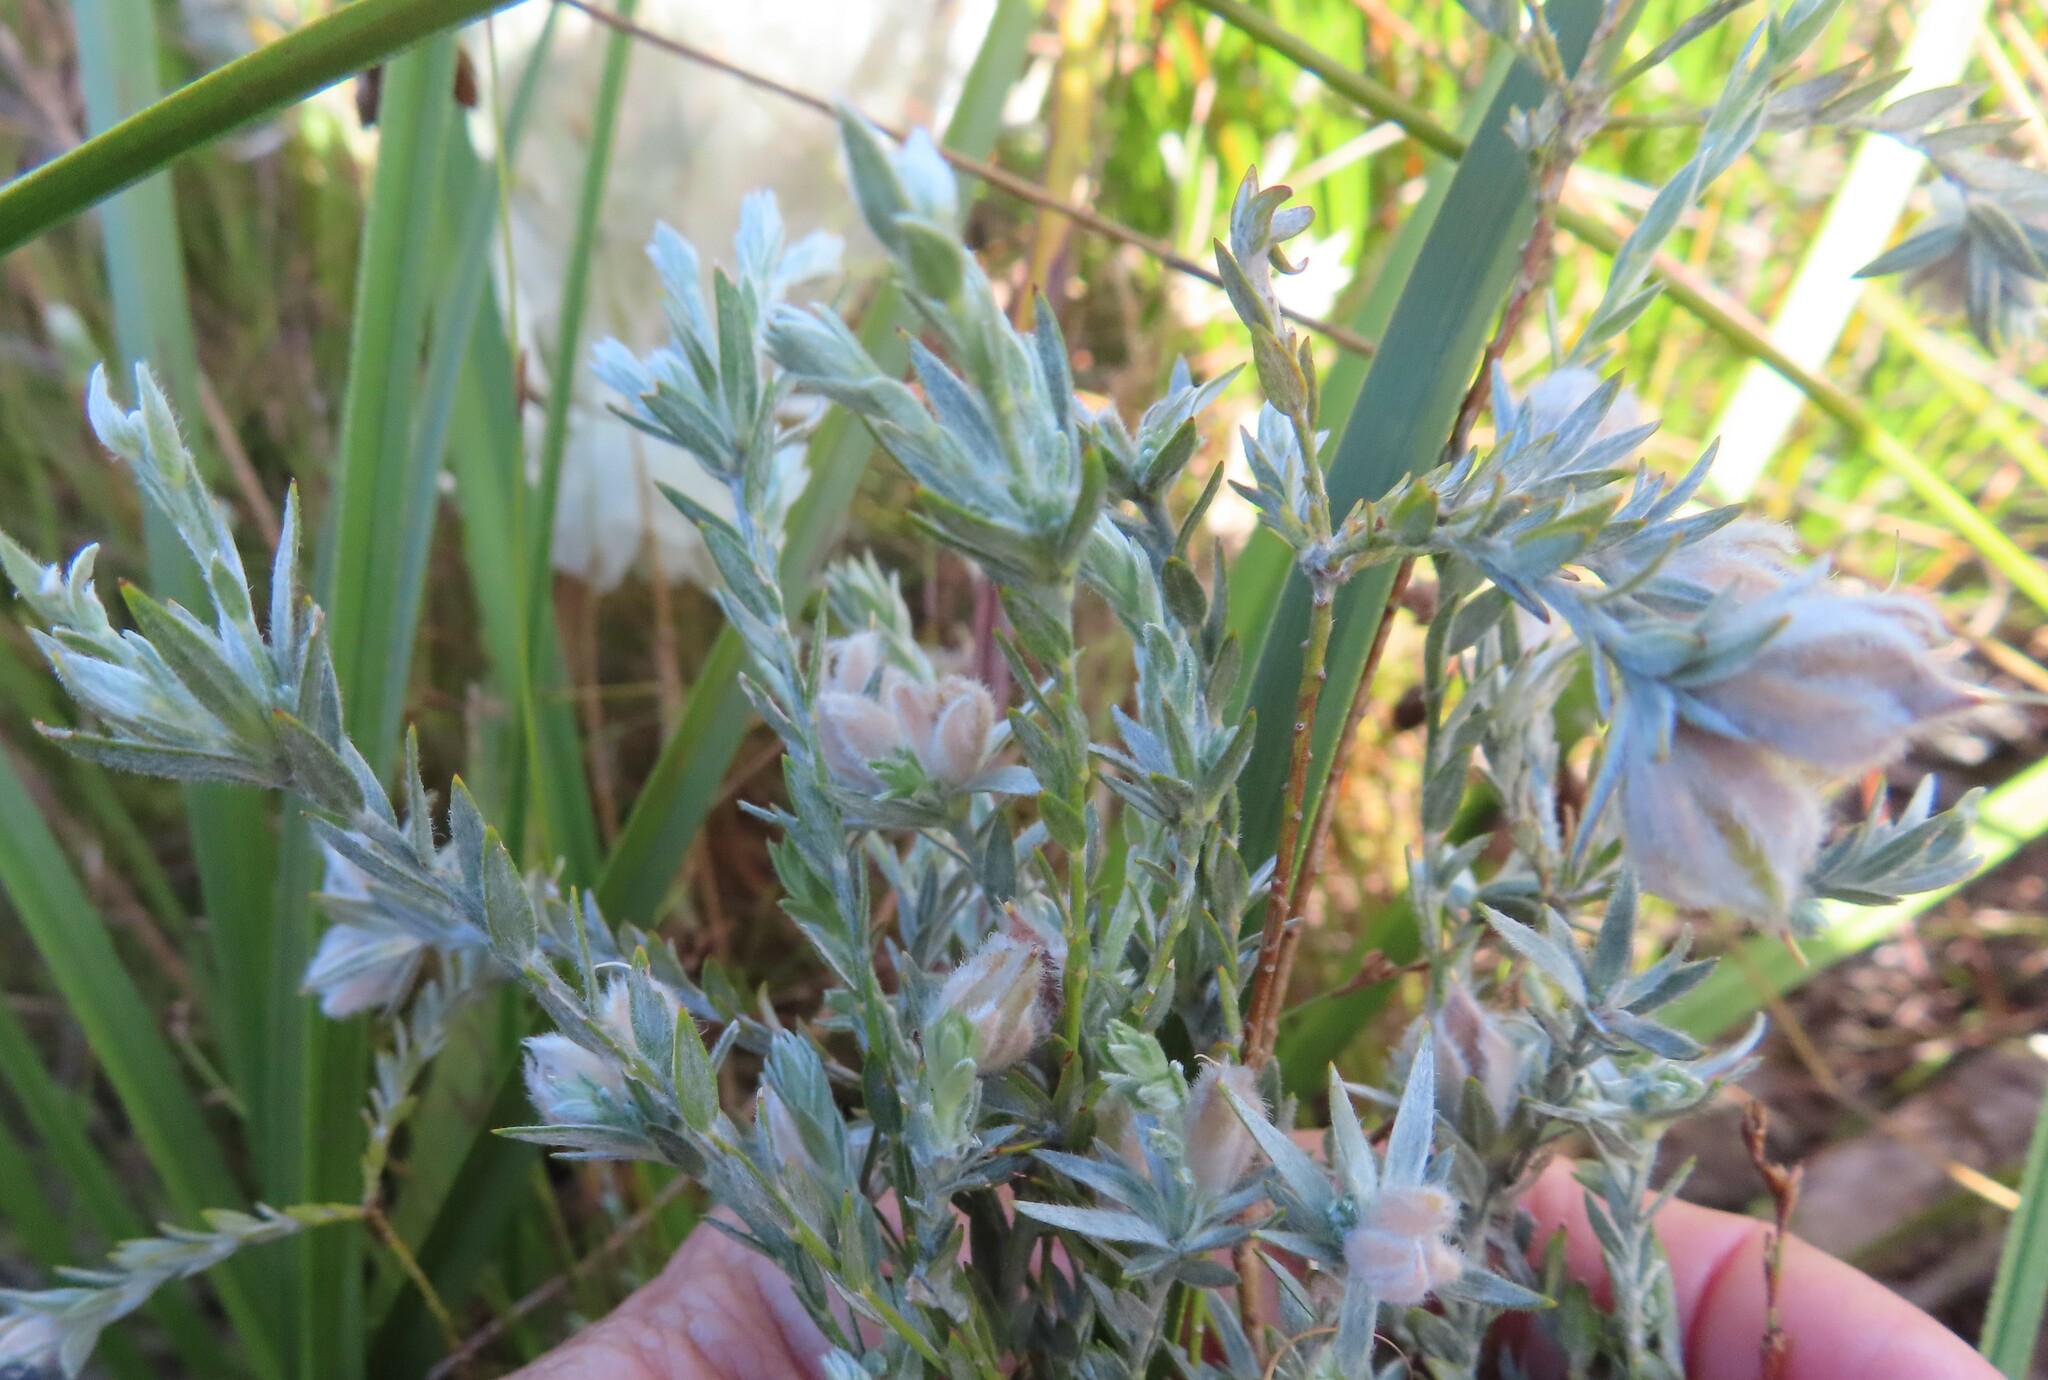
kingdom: Plantae
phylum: Tracheophyta
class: Magnoliopsida
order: Fabales
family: Fabaceae
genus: Amphithalea
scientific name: Amphithalea tomentosa
